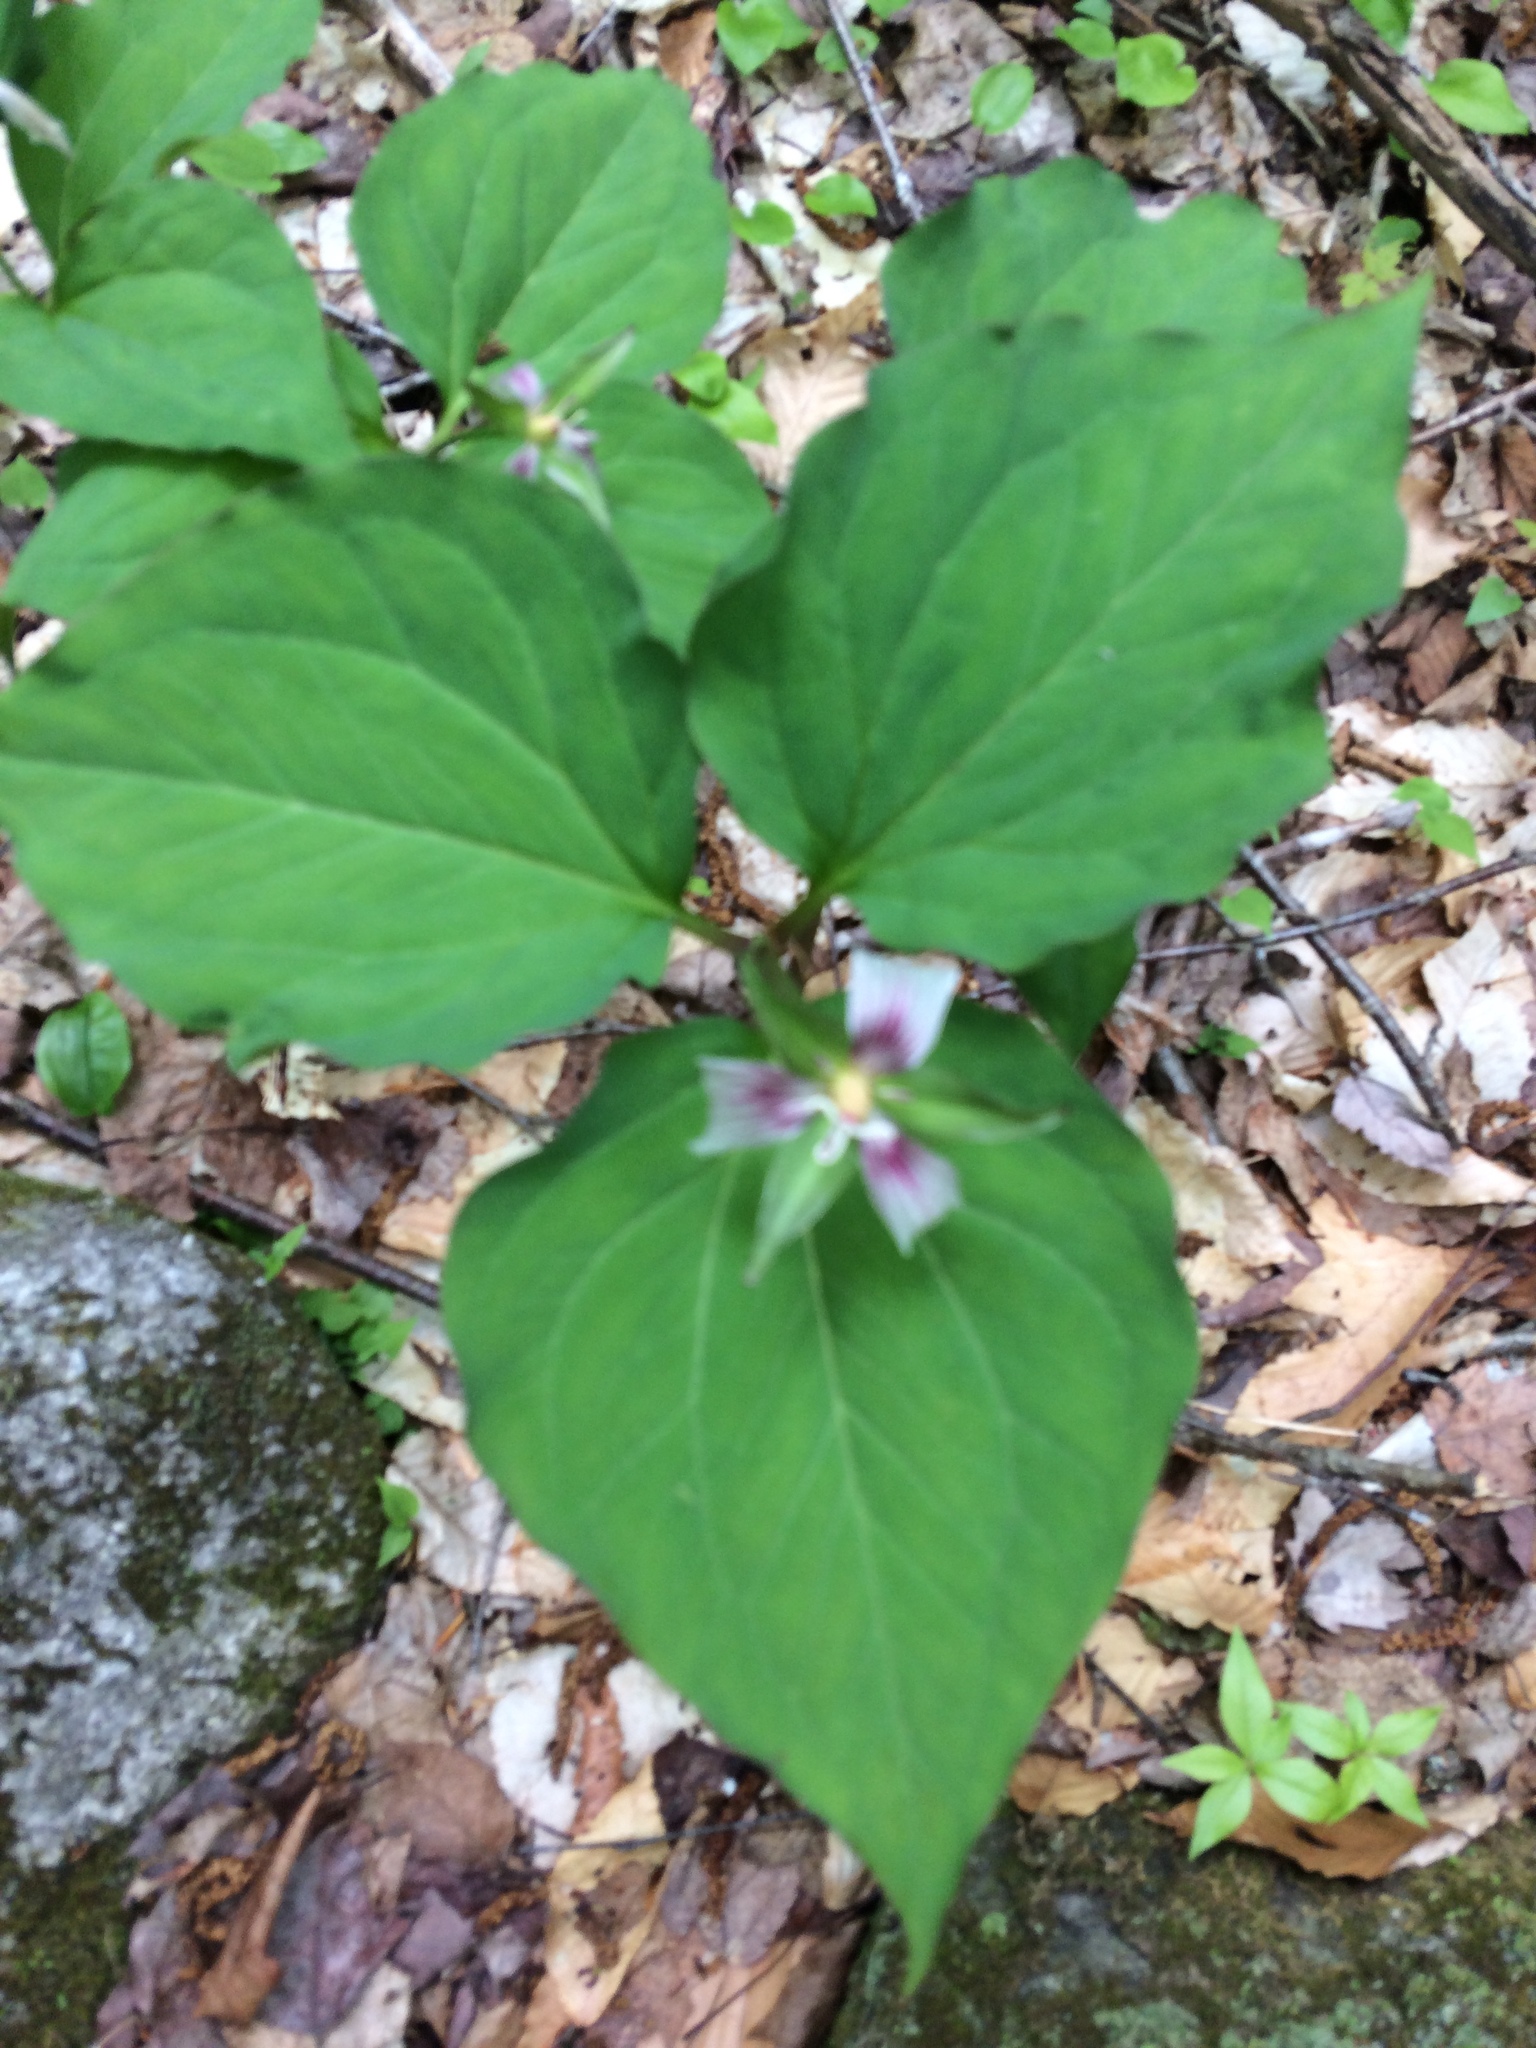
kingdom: Plantae
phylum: Tracheophyta
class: Liliopsida
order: Liliales
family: Melanthiaceae
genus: Trillium
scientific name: Trillium undulatum
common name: Paint trillium
